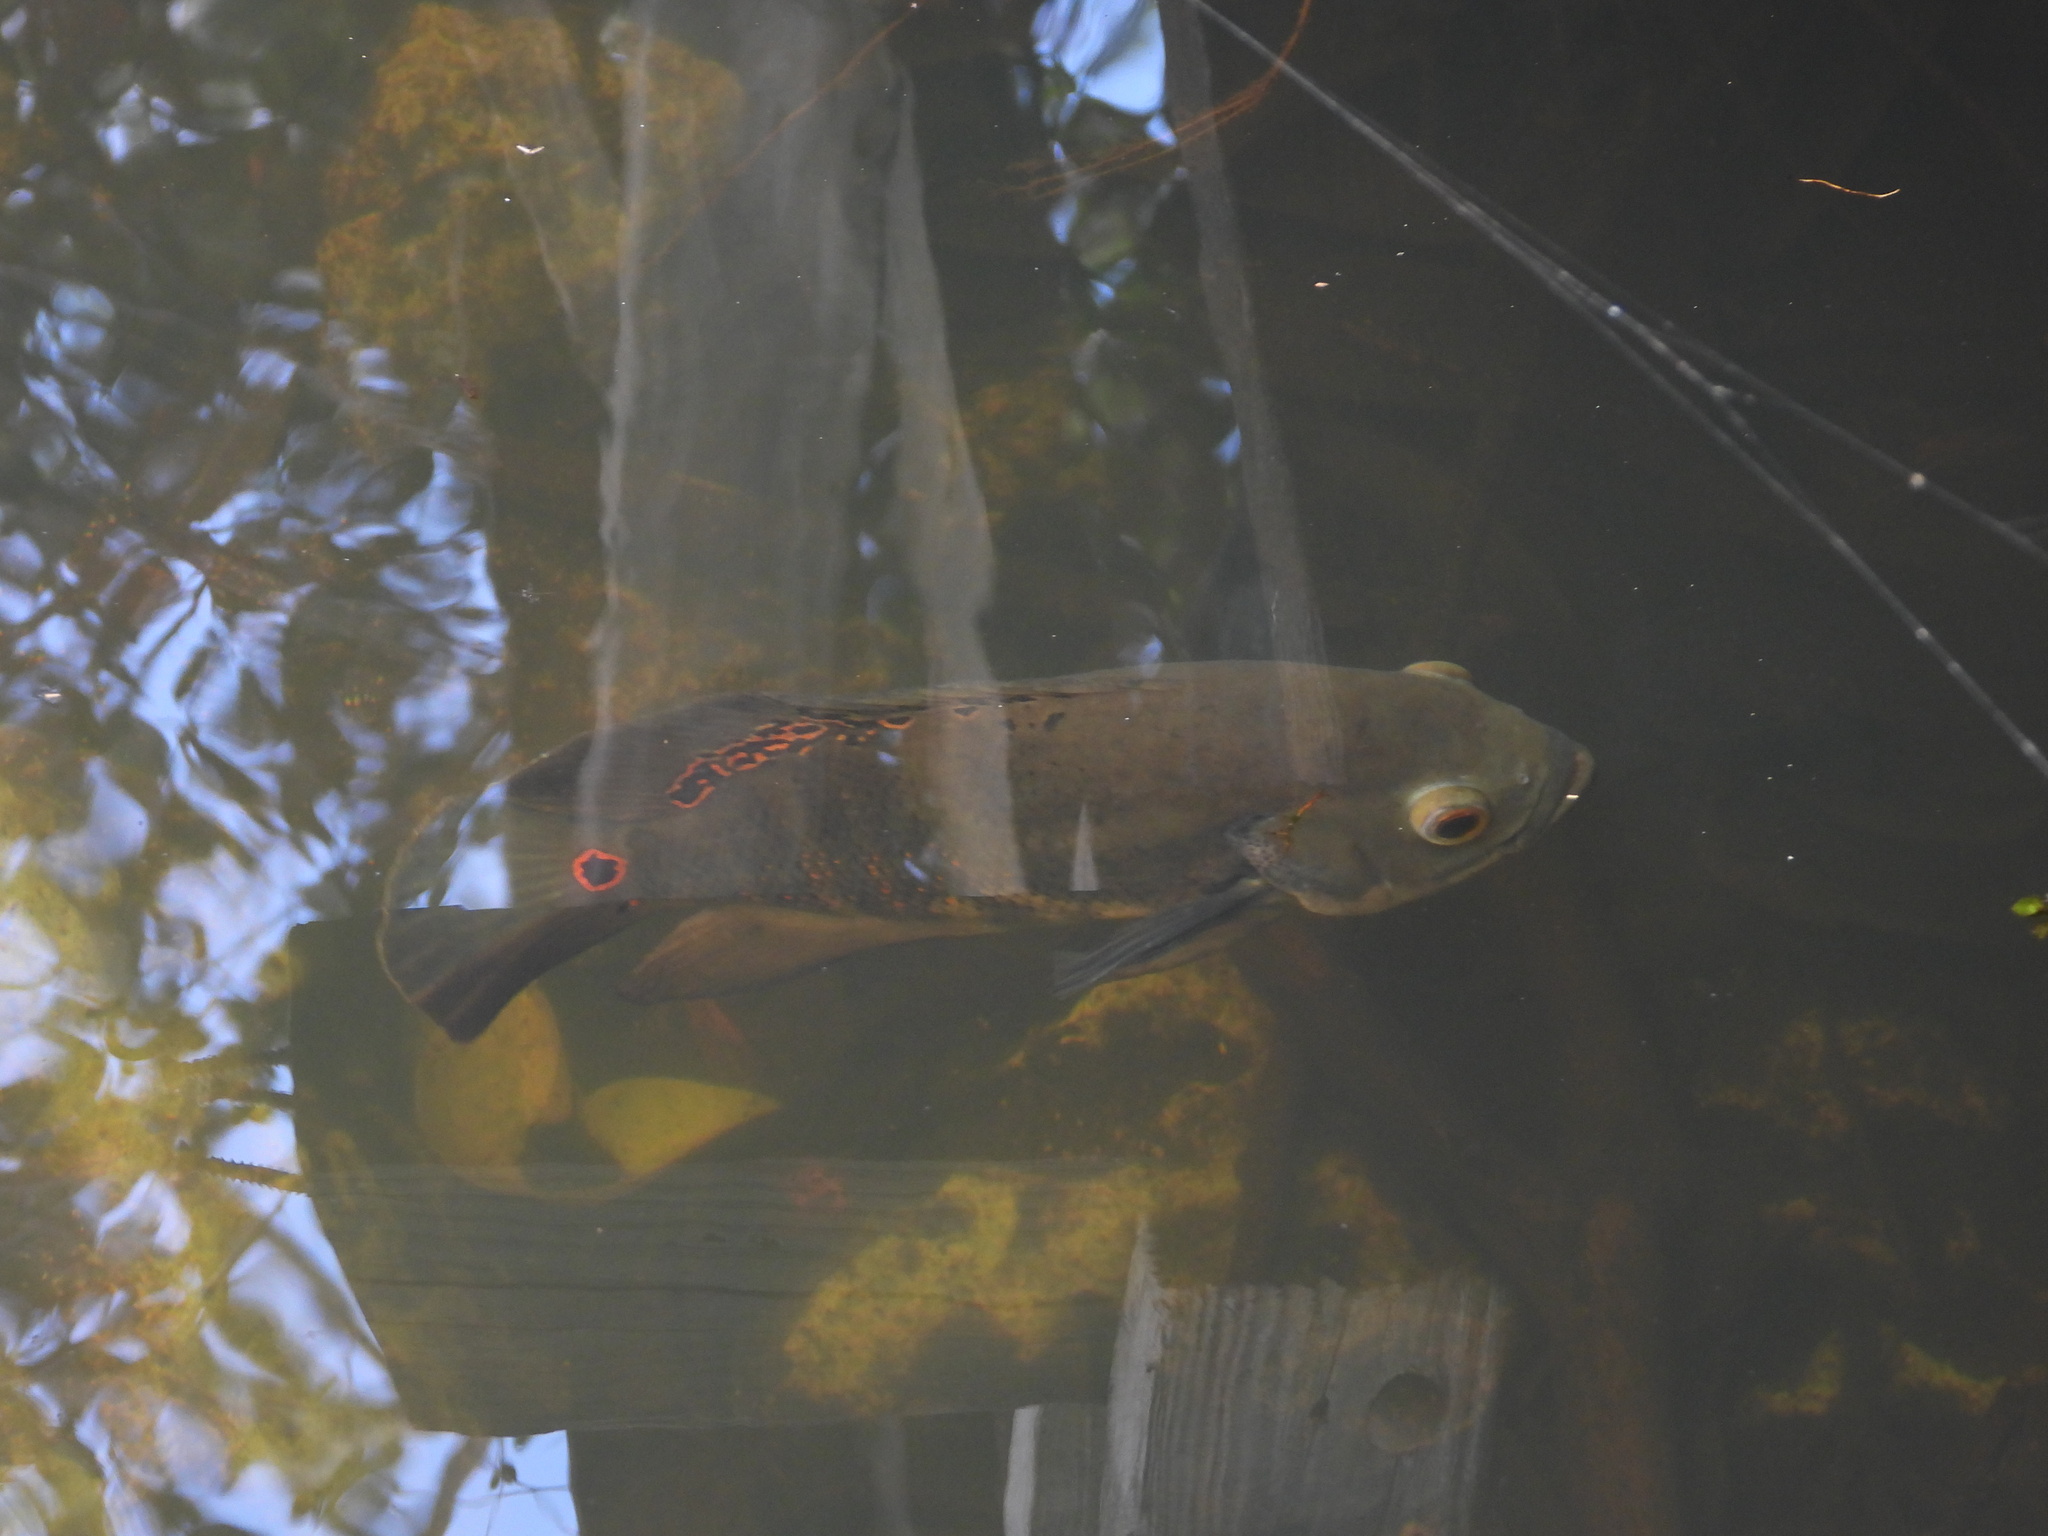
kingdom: Animalia
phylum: Chordata
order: Perciformes
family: Cichlidae
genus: Astronotus
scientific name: Astronotus ocellatus
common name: Oscar
